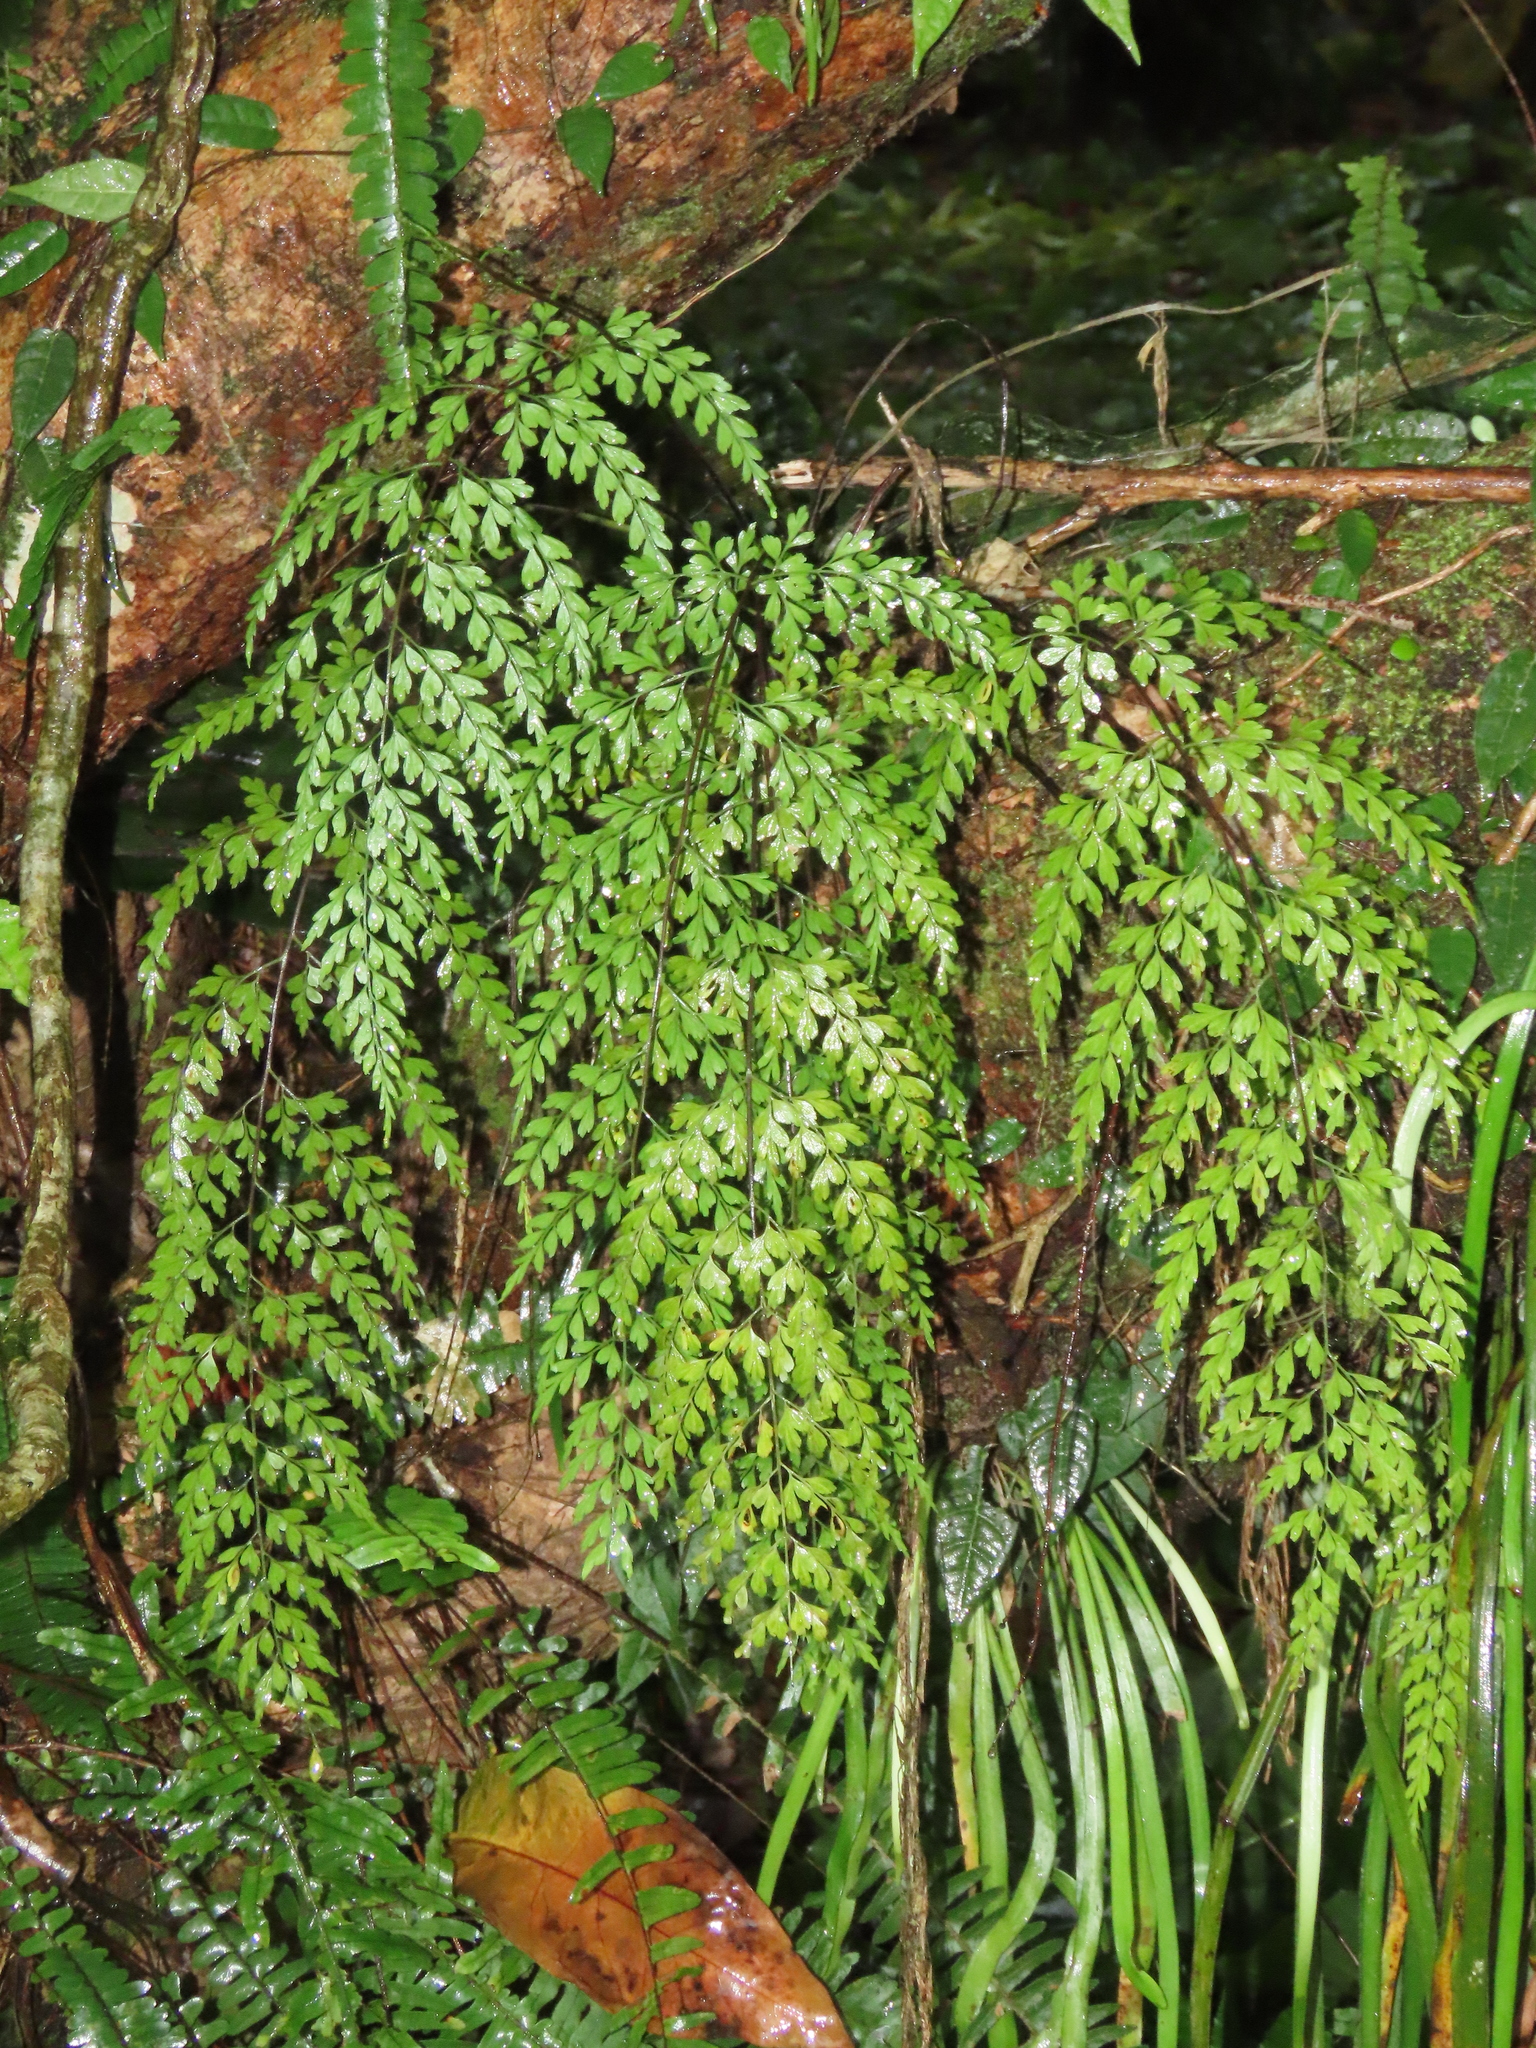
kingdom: Plantae
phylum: Tracheophyta
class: Polypodiopsida
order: Polypodiales
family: Aspleniaceae
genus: Asplenium
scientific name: Asplenium pseudolaserpitiifolium
